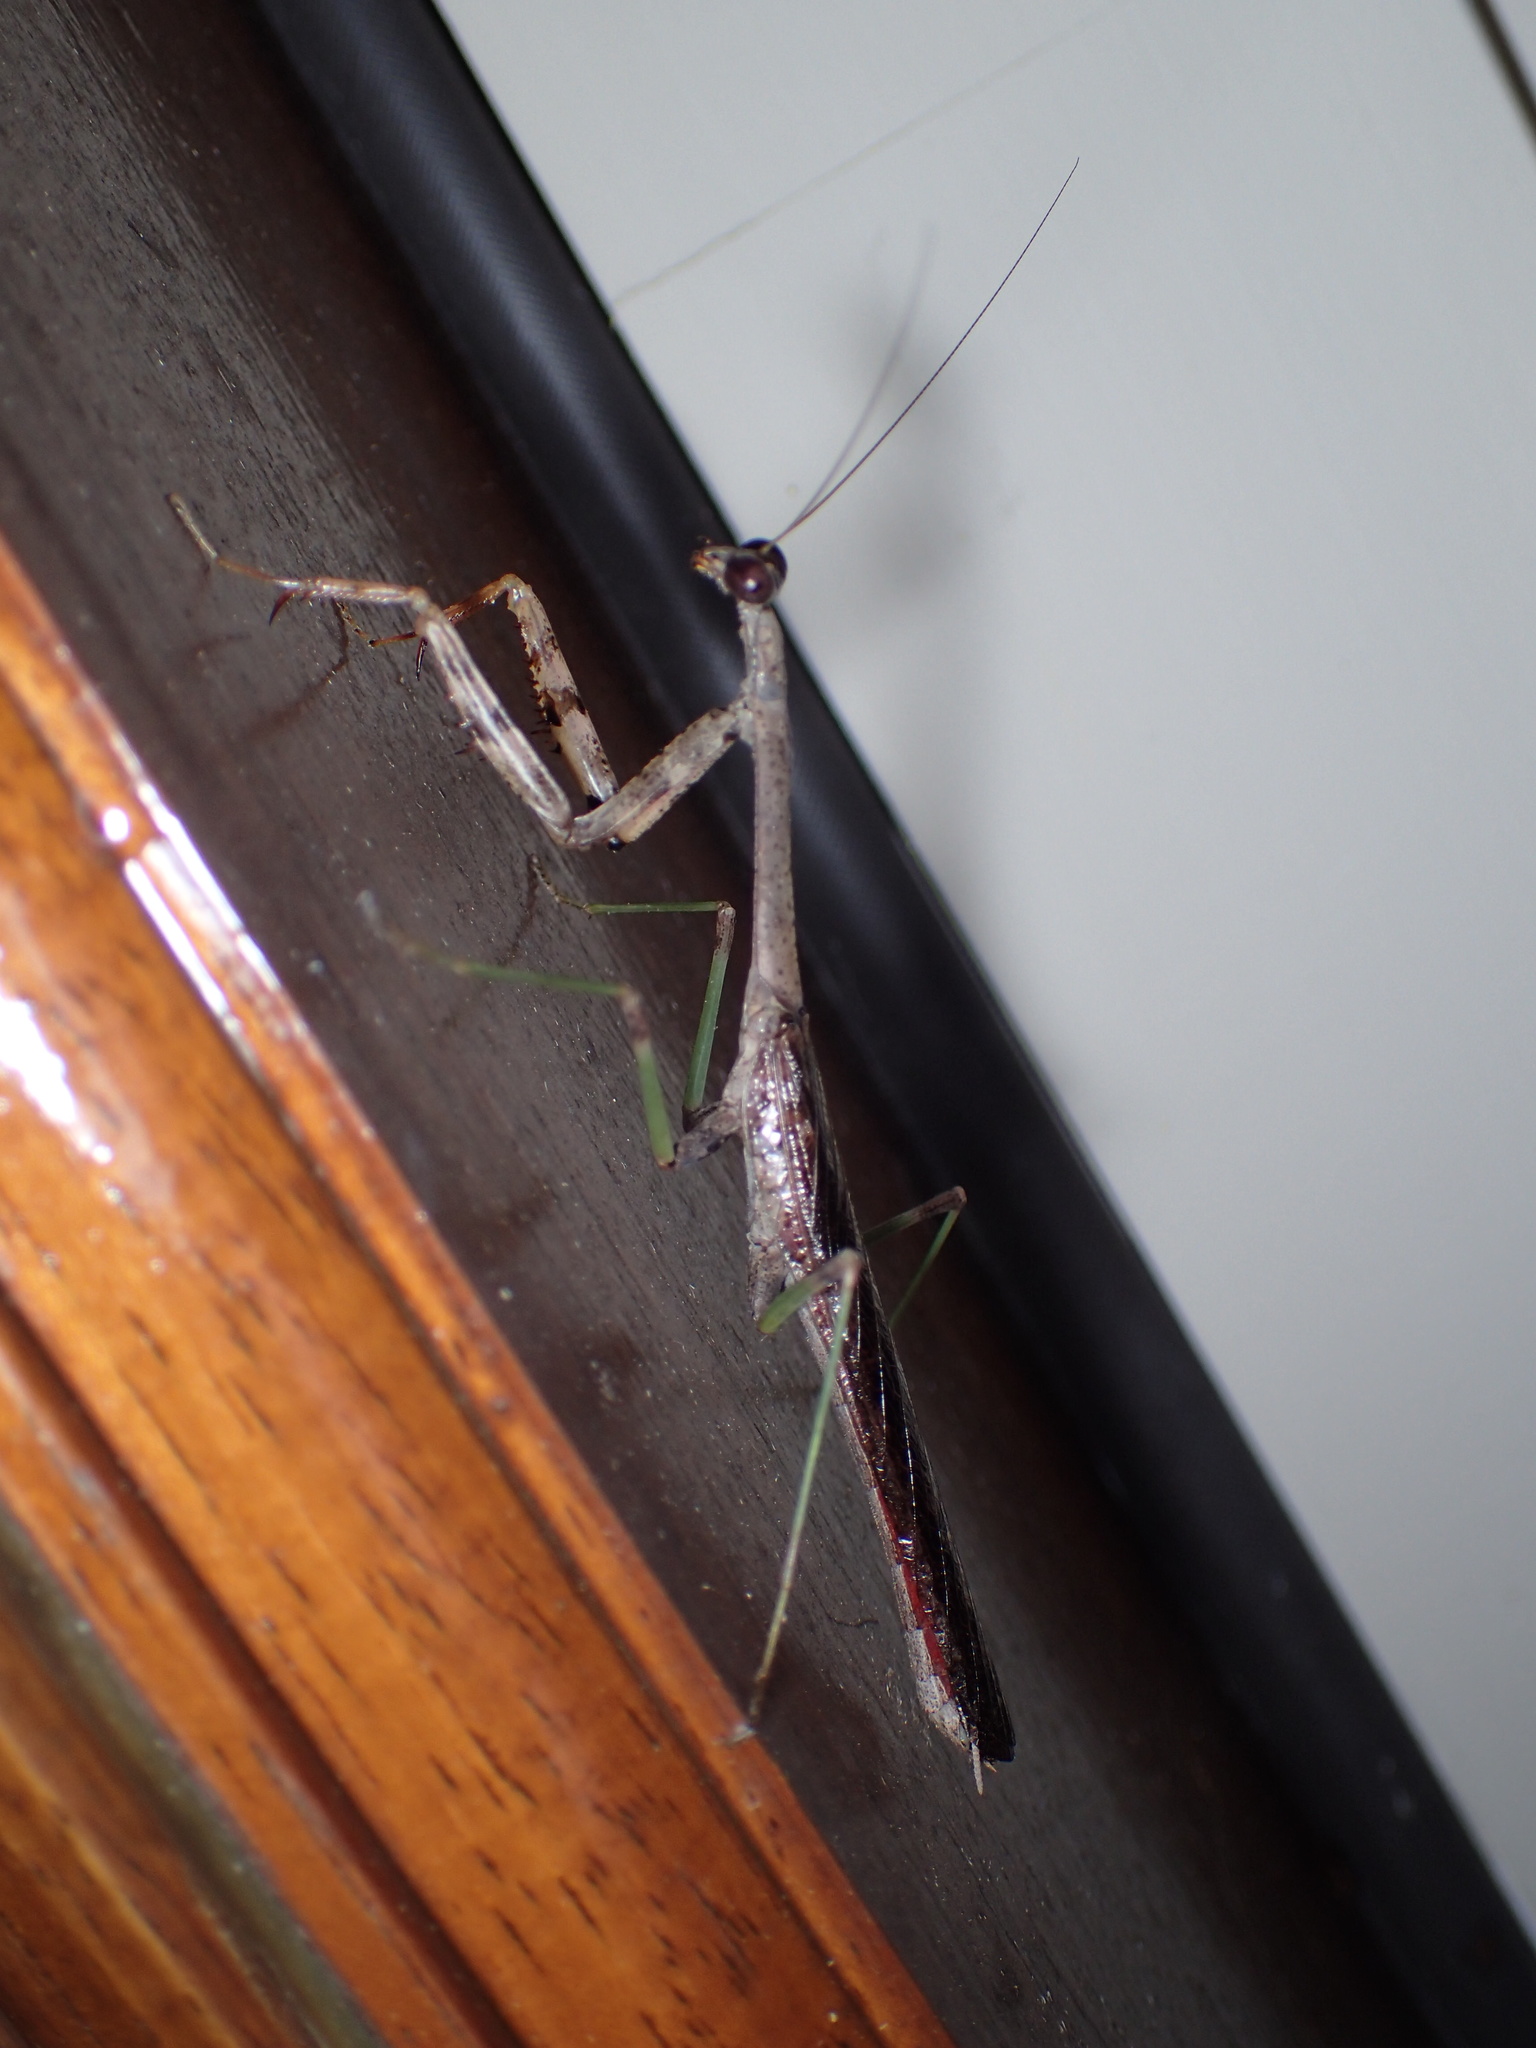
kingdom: Animalia
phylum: Arthropoda
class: Insecta
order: Mantodea
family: Mantidae
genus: Stagmomantis
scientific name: Stagmomantis carolina
